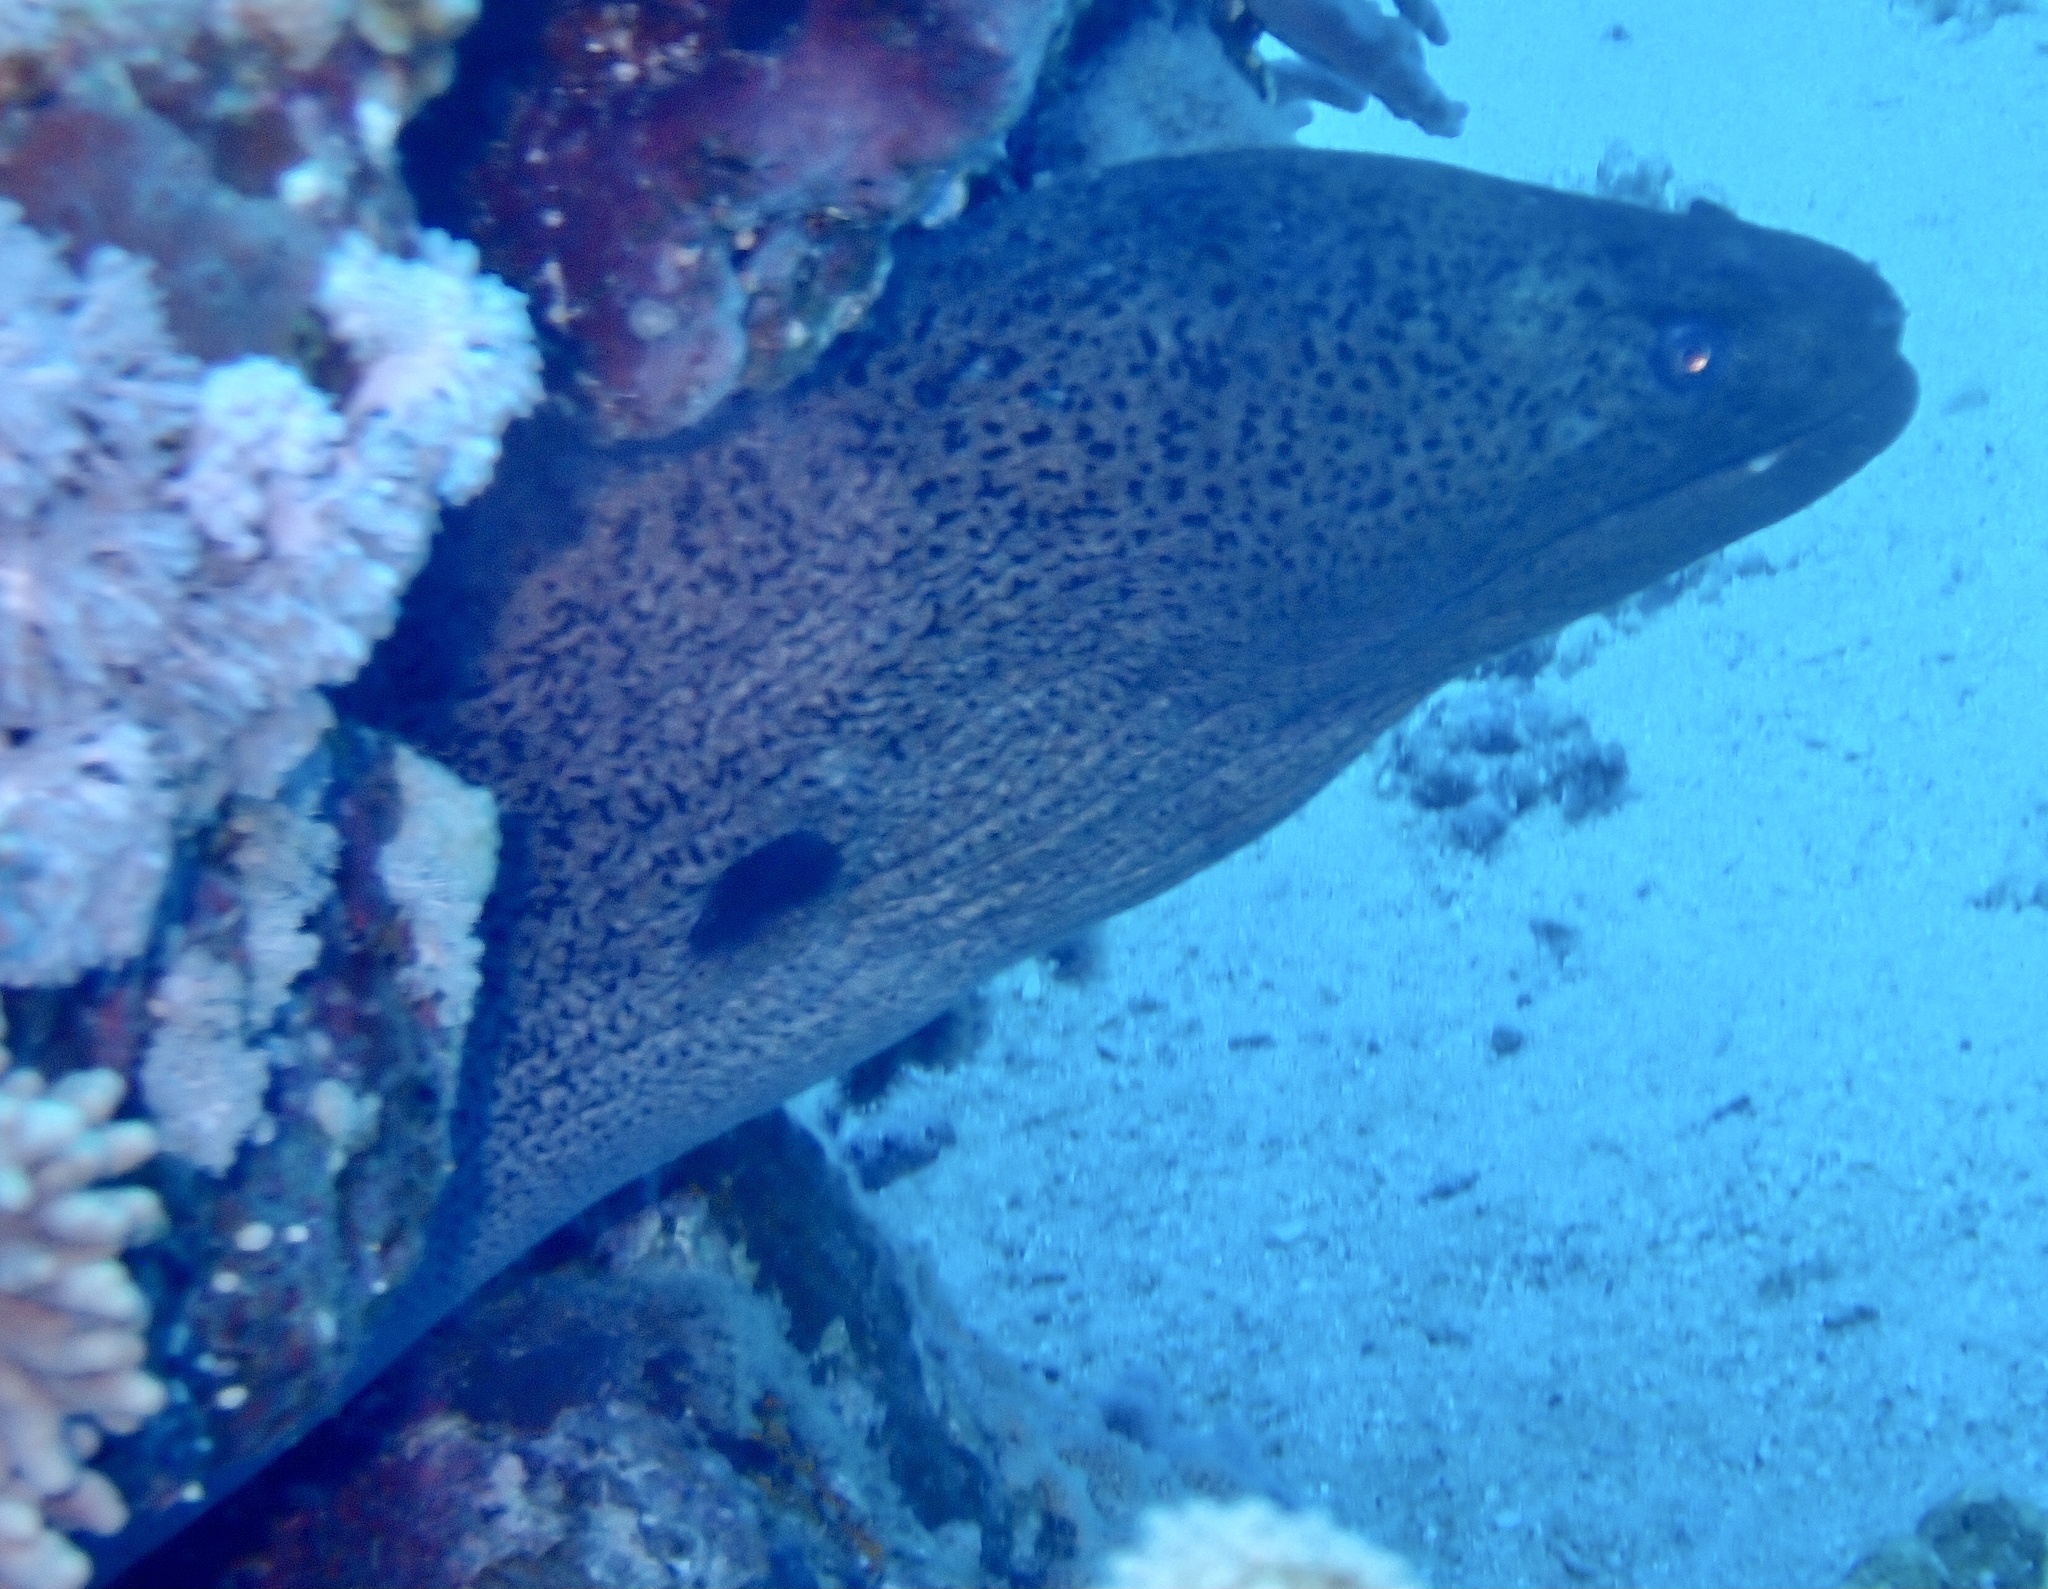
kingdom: Animalia
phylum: Chordata
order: Anguilliformes
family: Muraenidae
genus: Gymnothorax
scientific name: Gymnothorax javanicus
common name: Giant moray
